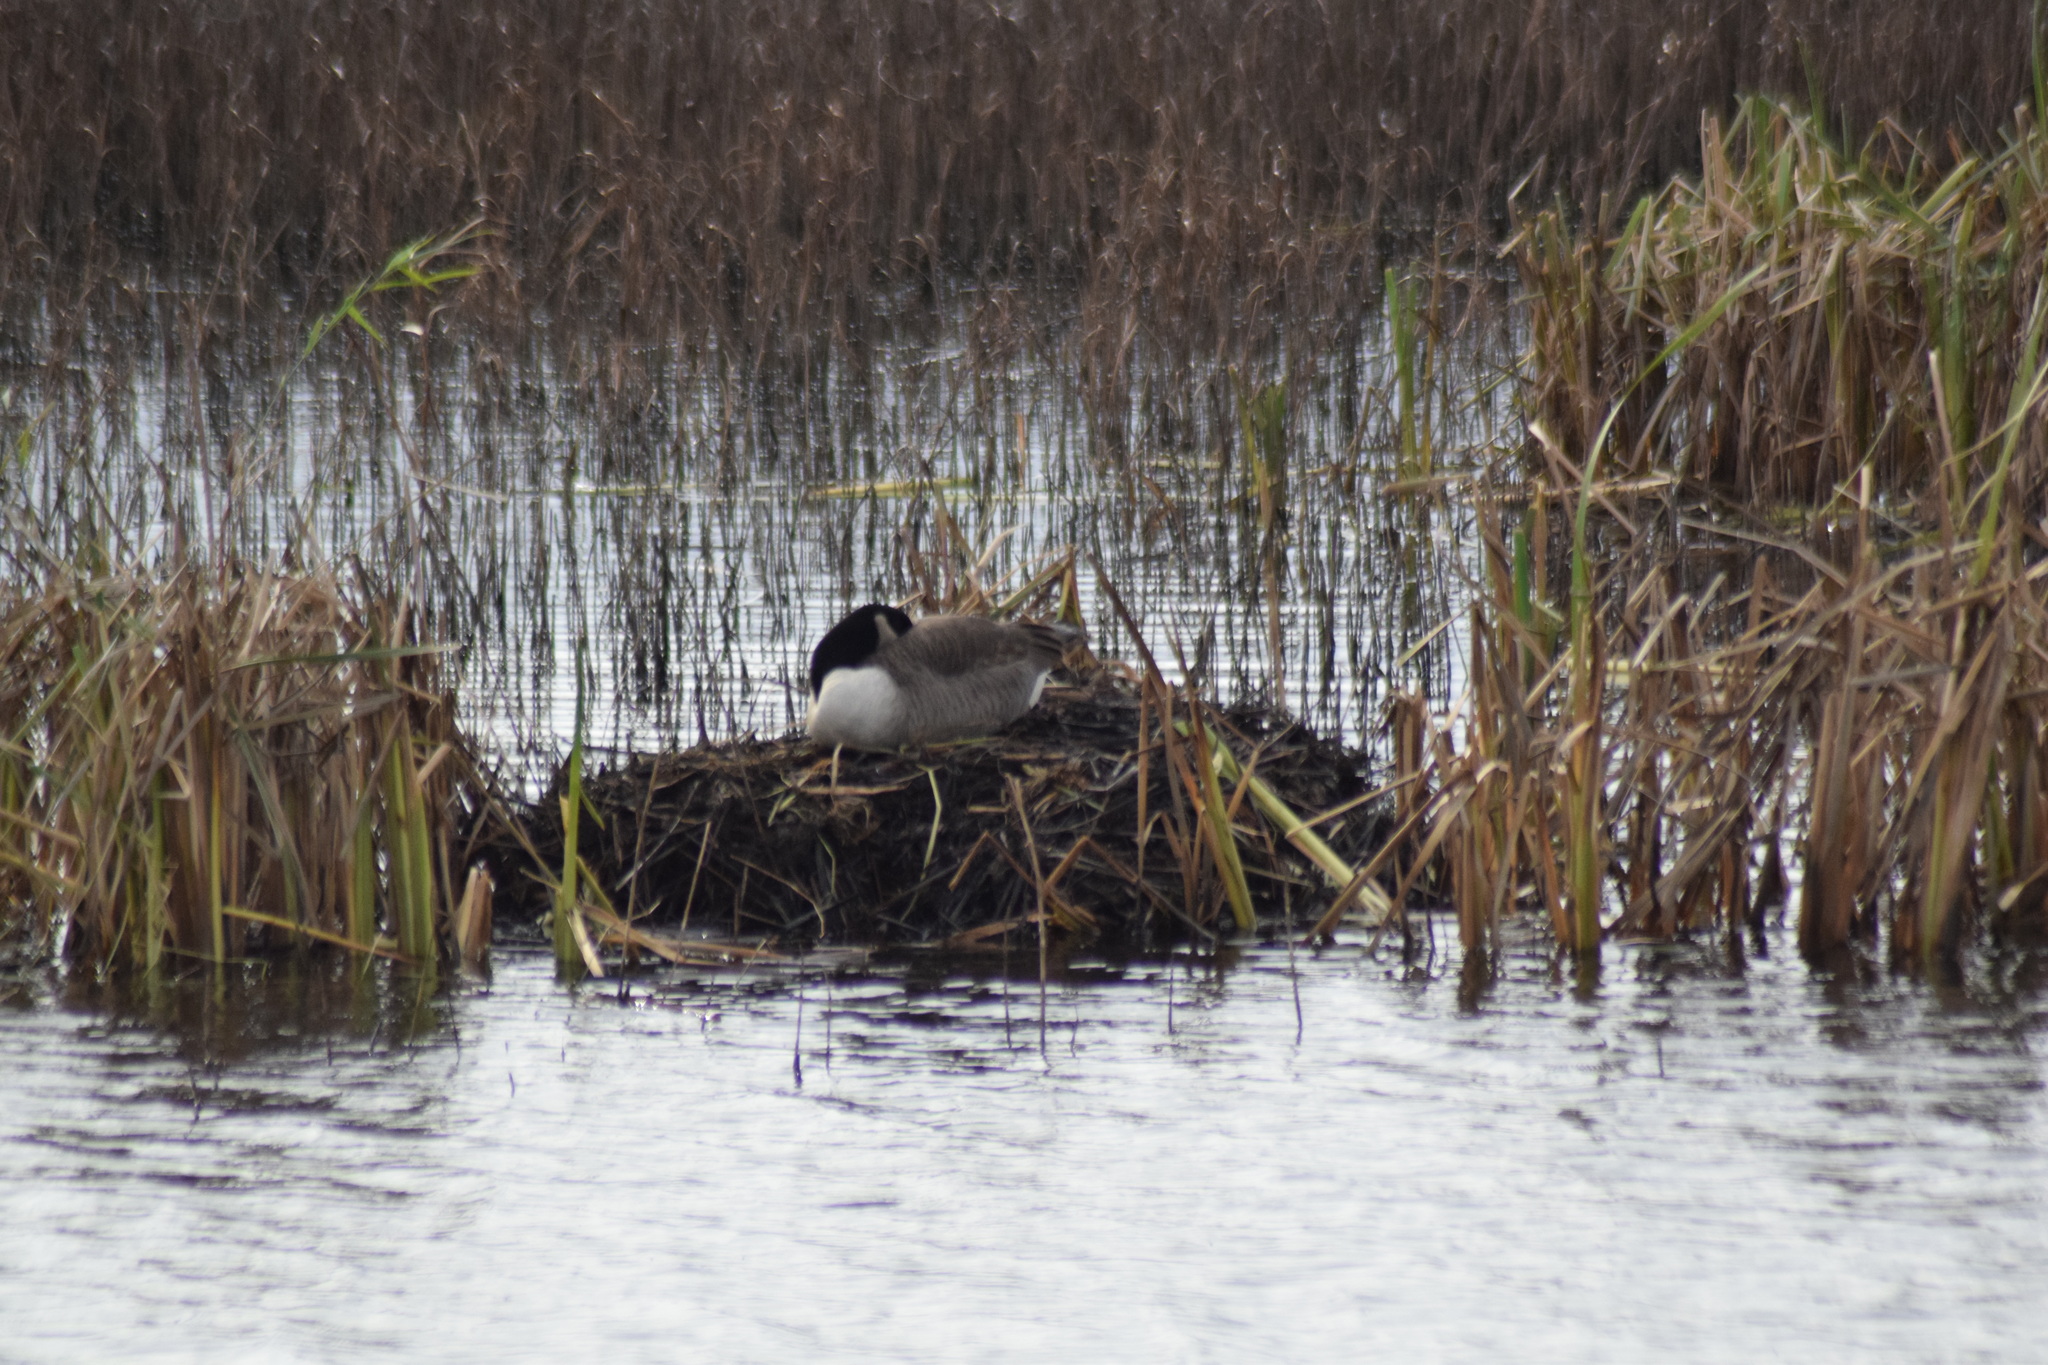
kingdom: Animalia
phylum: Chordata
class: Aves
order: Anseriformes
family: Anatidae
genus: Branta
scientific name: Branta canadensis
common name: Canada goose
